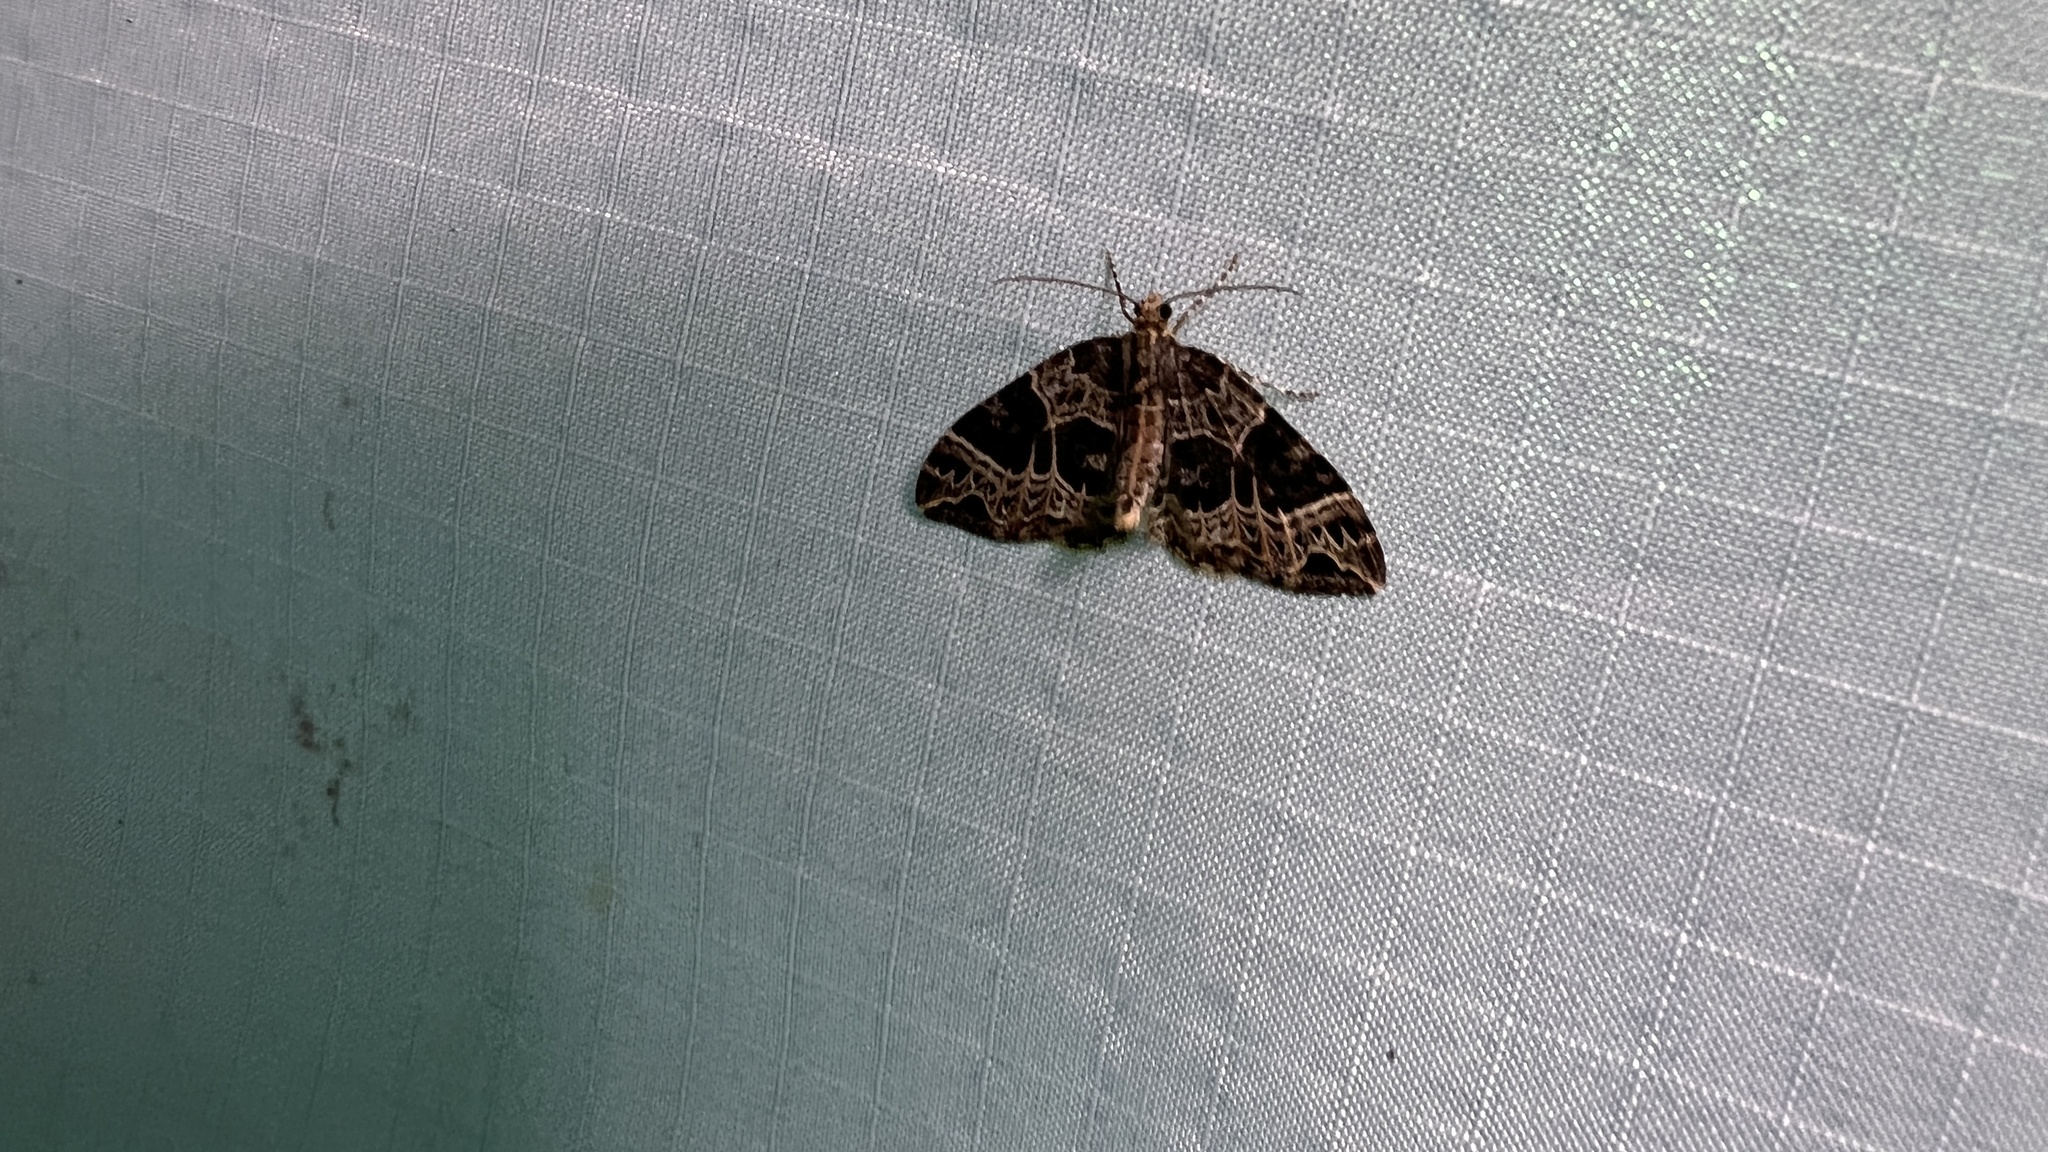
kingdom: Animalia
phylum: Arthropoda
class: Insecta
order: Lepidoptera
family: Geometridae
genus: Ecliptopera
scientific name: Ecliptopera silaceata
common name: Small phoenix
